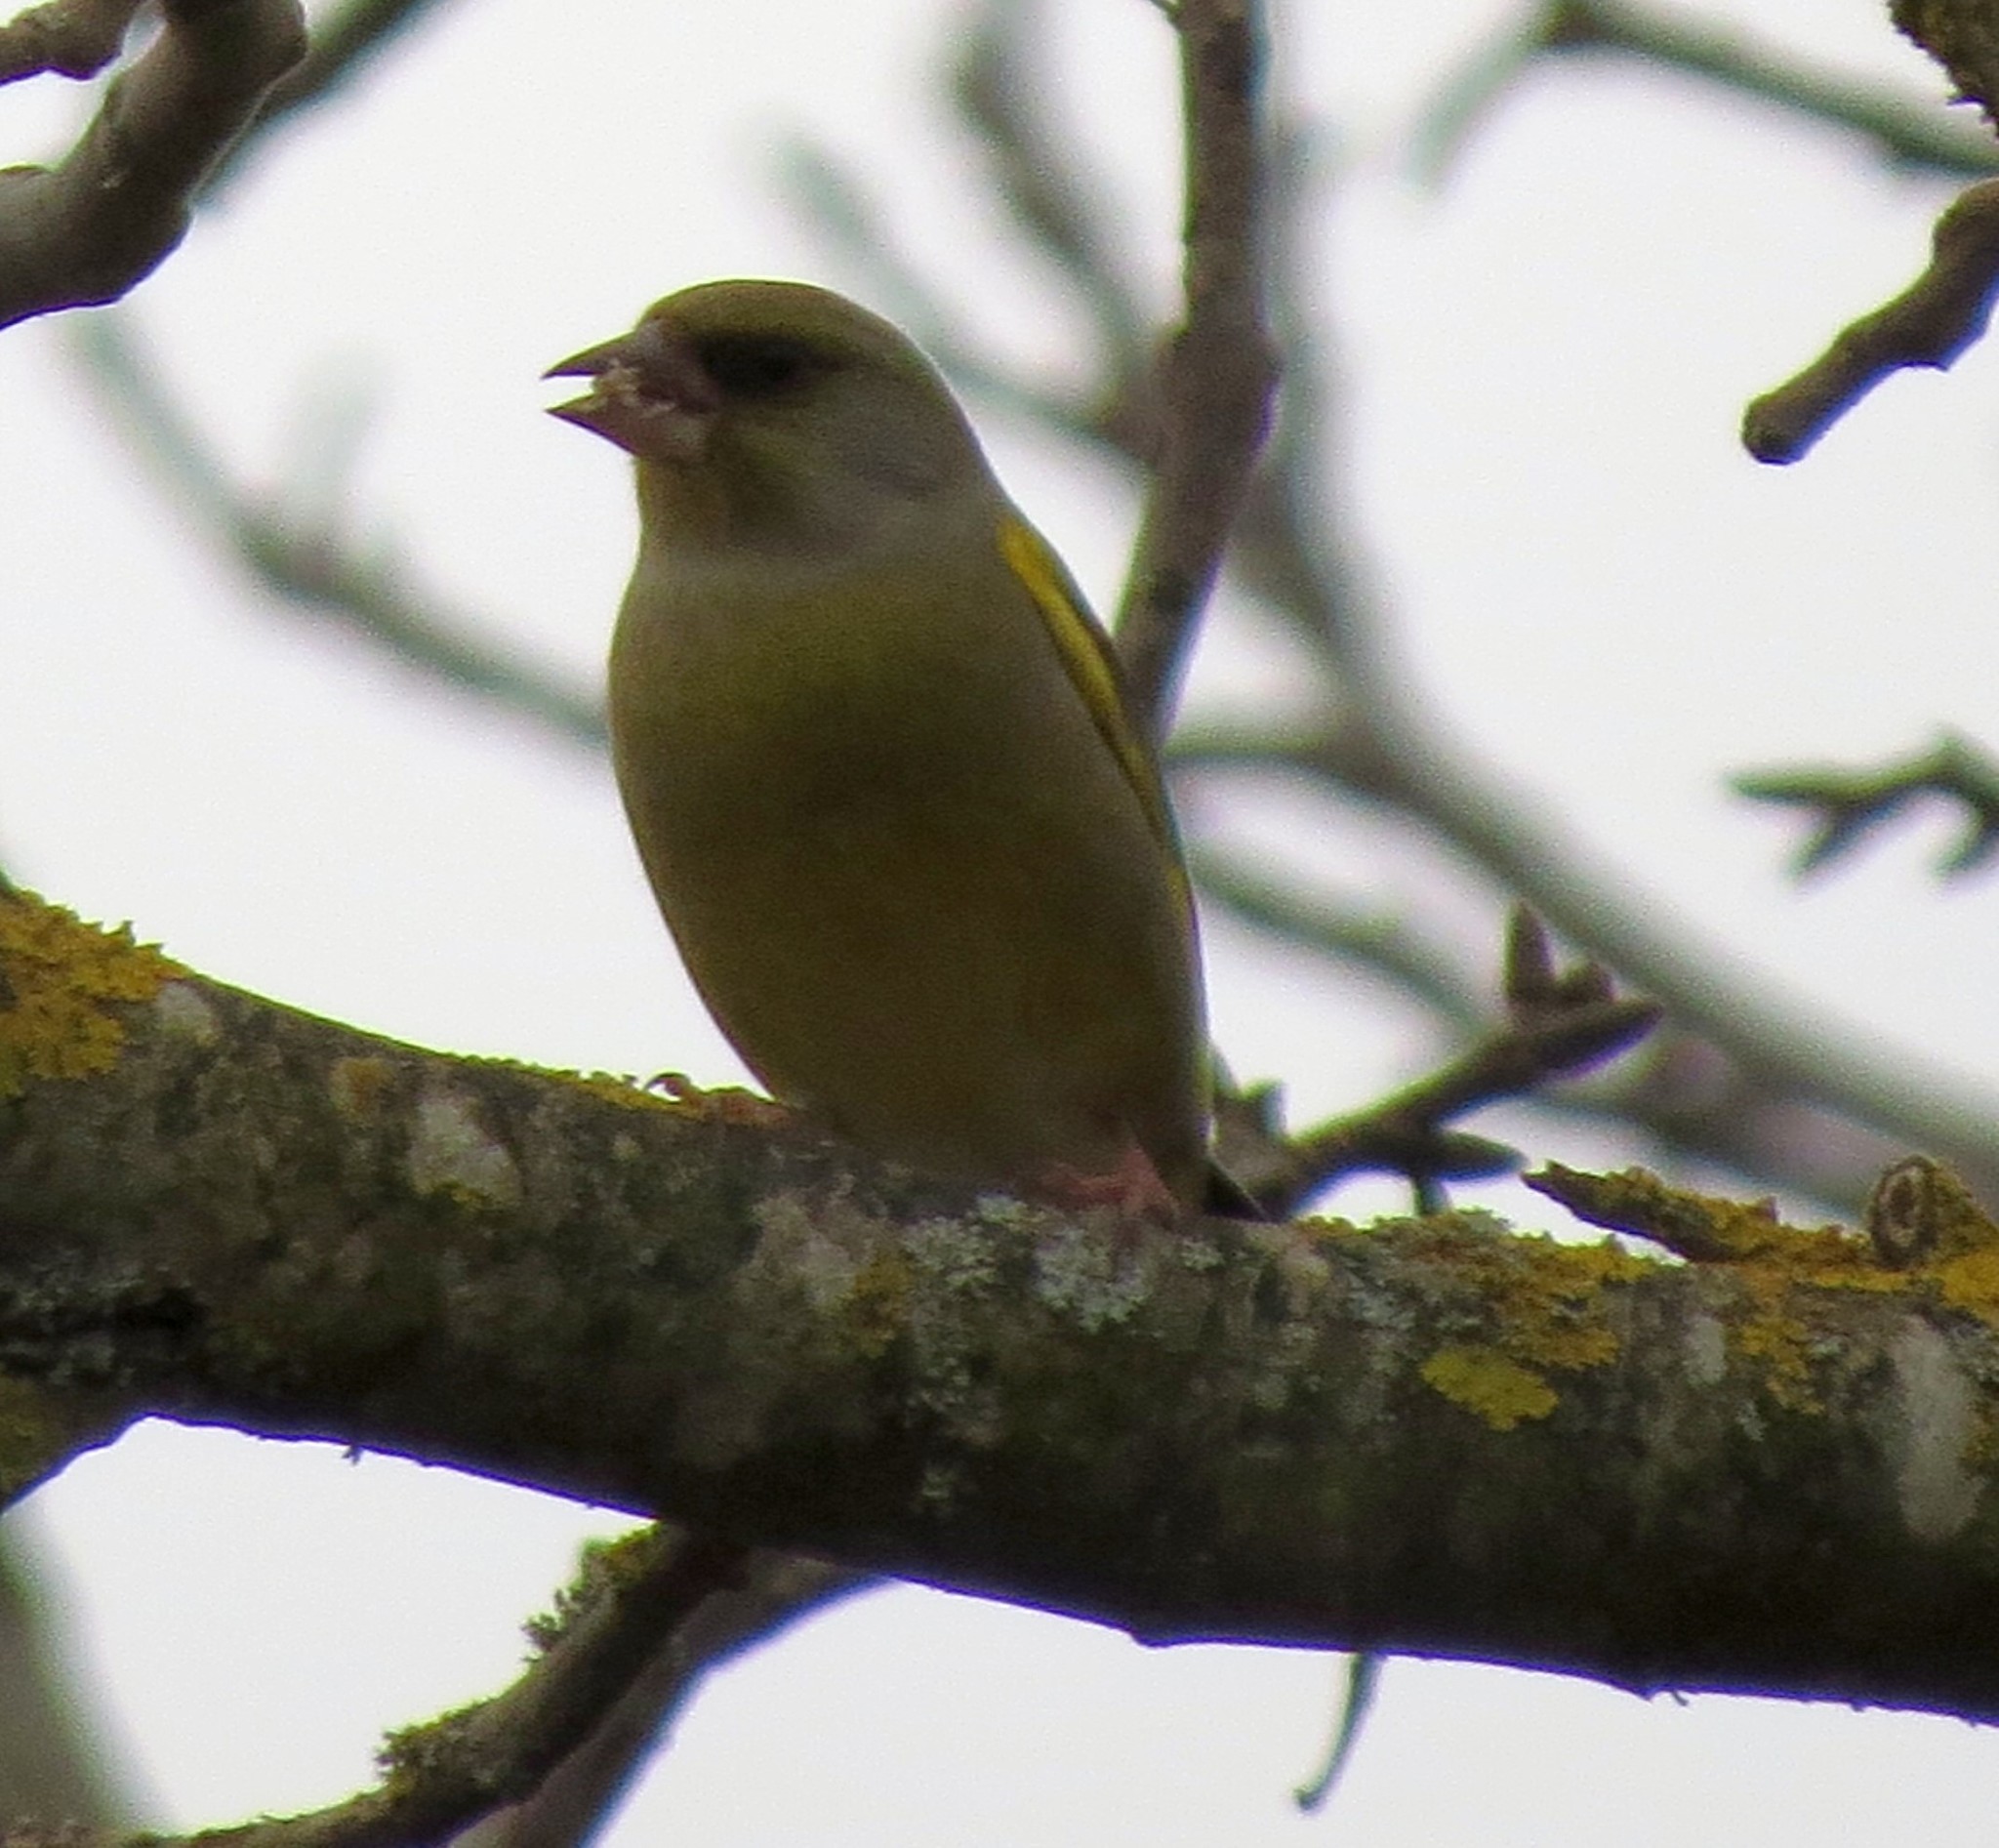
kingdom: Plantae
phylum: Tracheophyta
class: Liliopsida
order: Poales
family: Poaceae
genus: Chloris
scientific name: Chloris chloris
